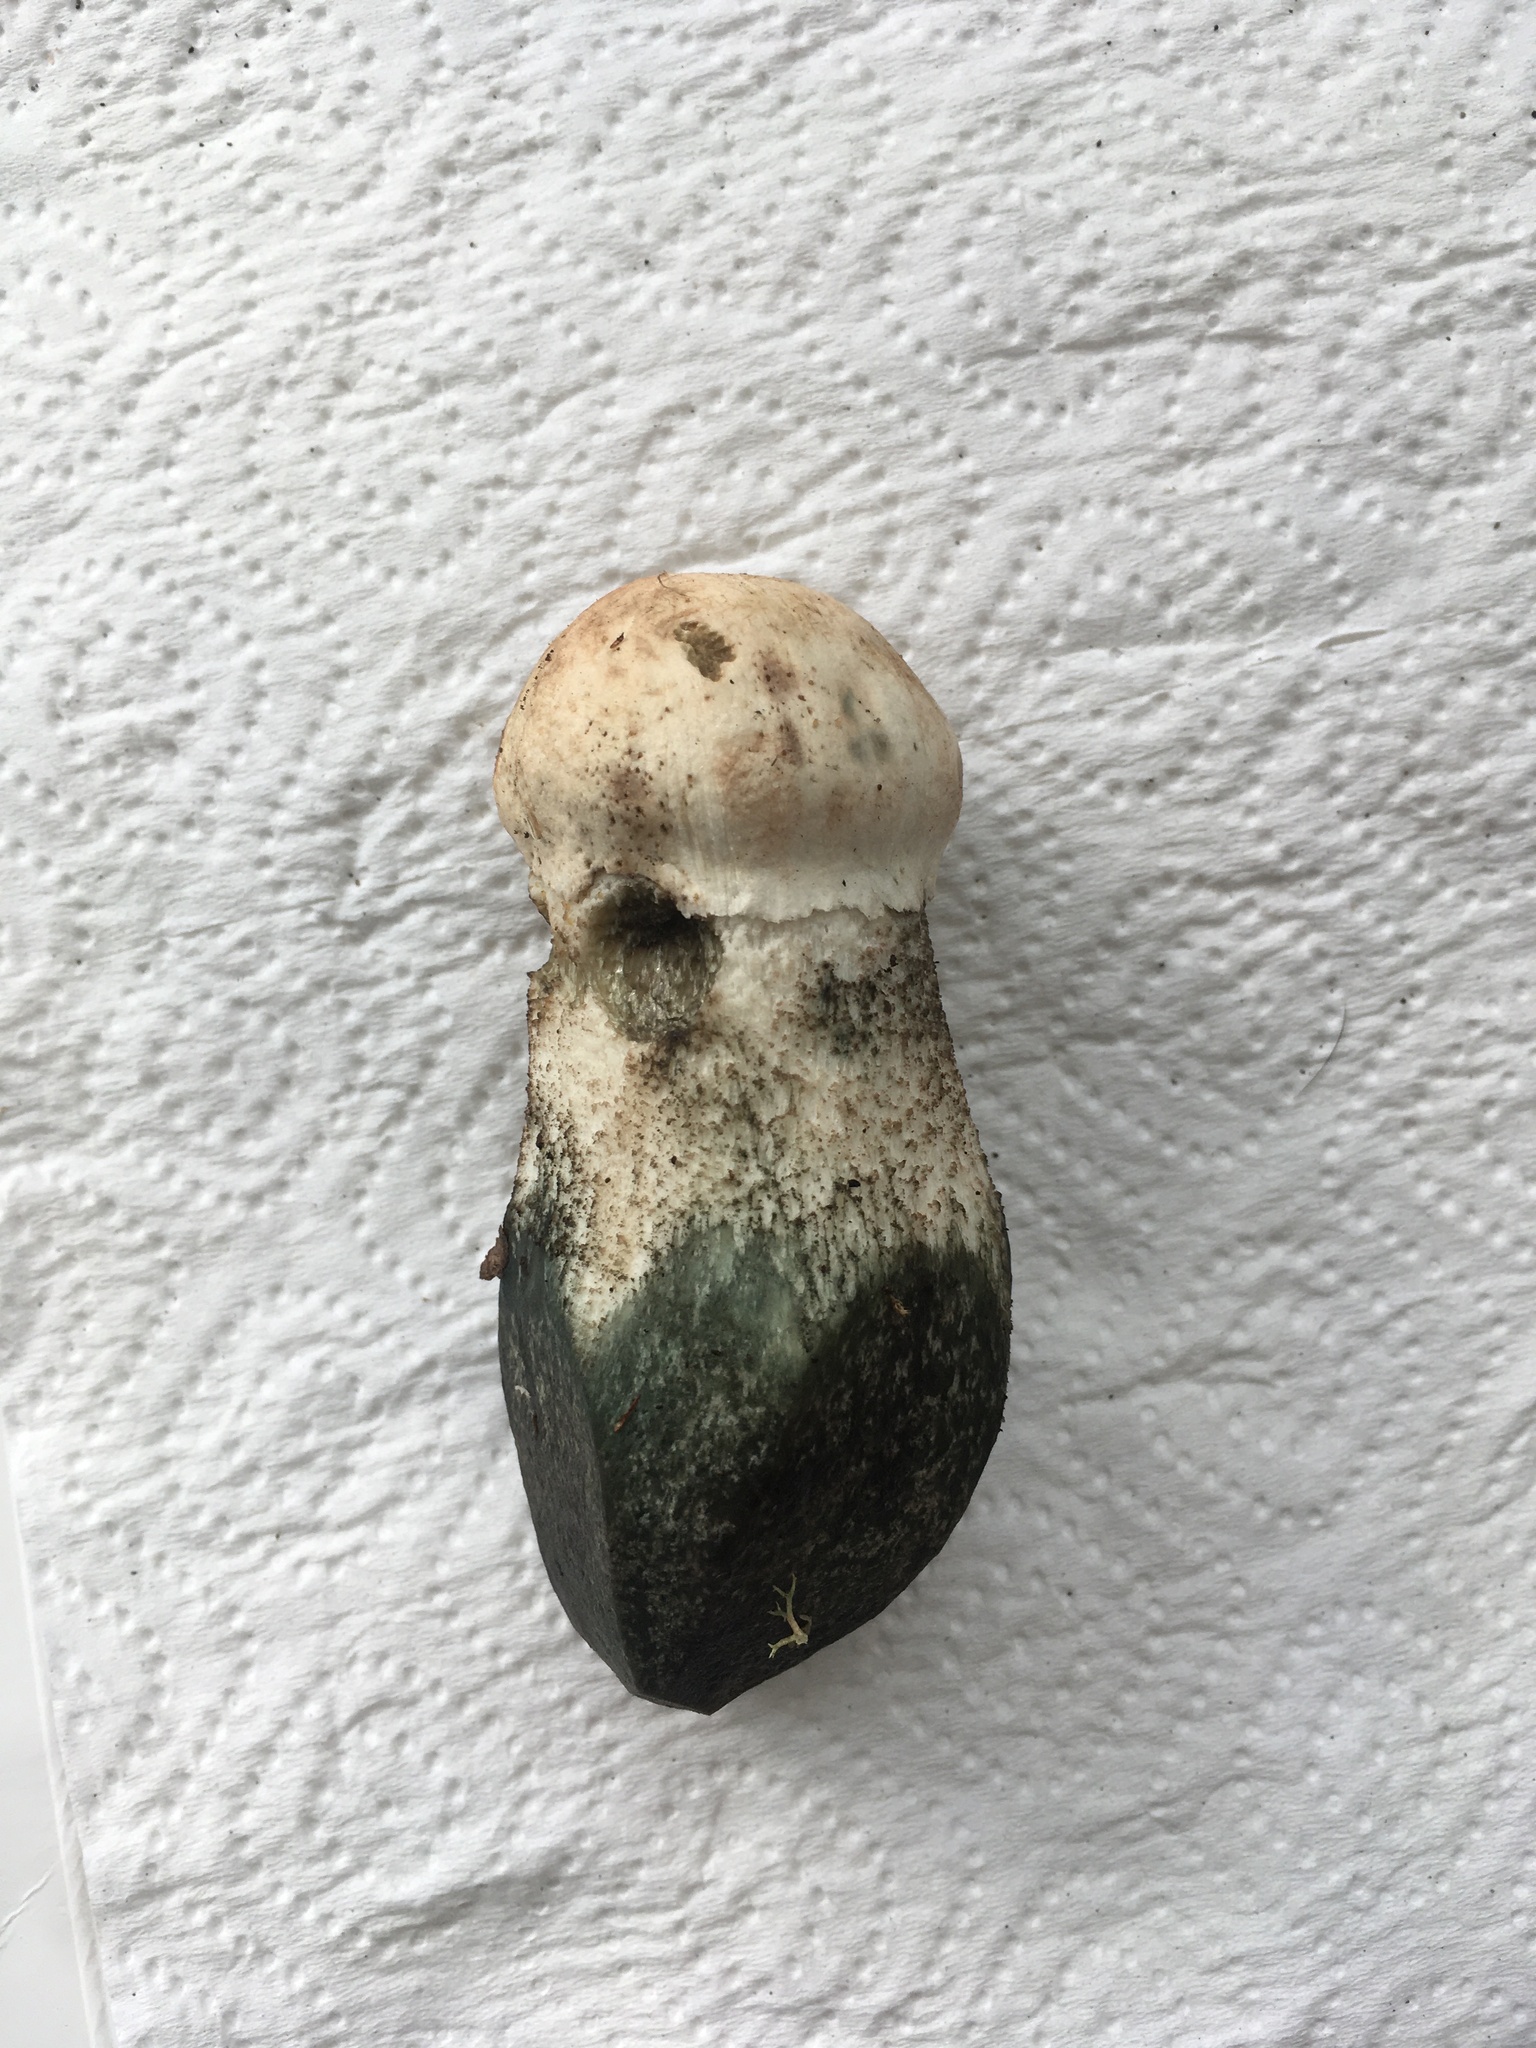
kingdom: Fungi
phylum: Basidiomycota
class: Agaricomycetes
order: Boletales
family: Boletaceae
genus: Leccinum
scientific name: Leccinum aurantiacum
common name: Orange bolete
